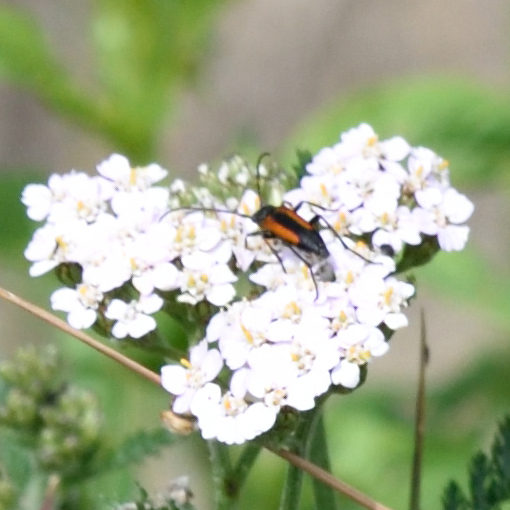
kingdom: Animalia
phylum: Arthropoda
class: Insecta
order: Coleoptera
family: Cerambycidae
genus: Stenurella
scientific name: Stenurella melanura
